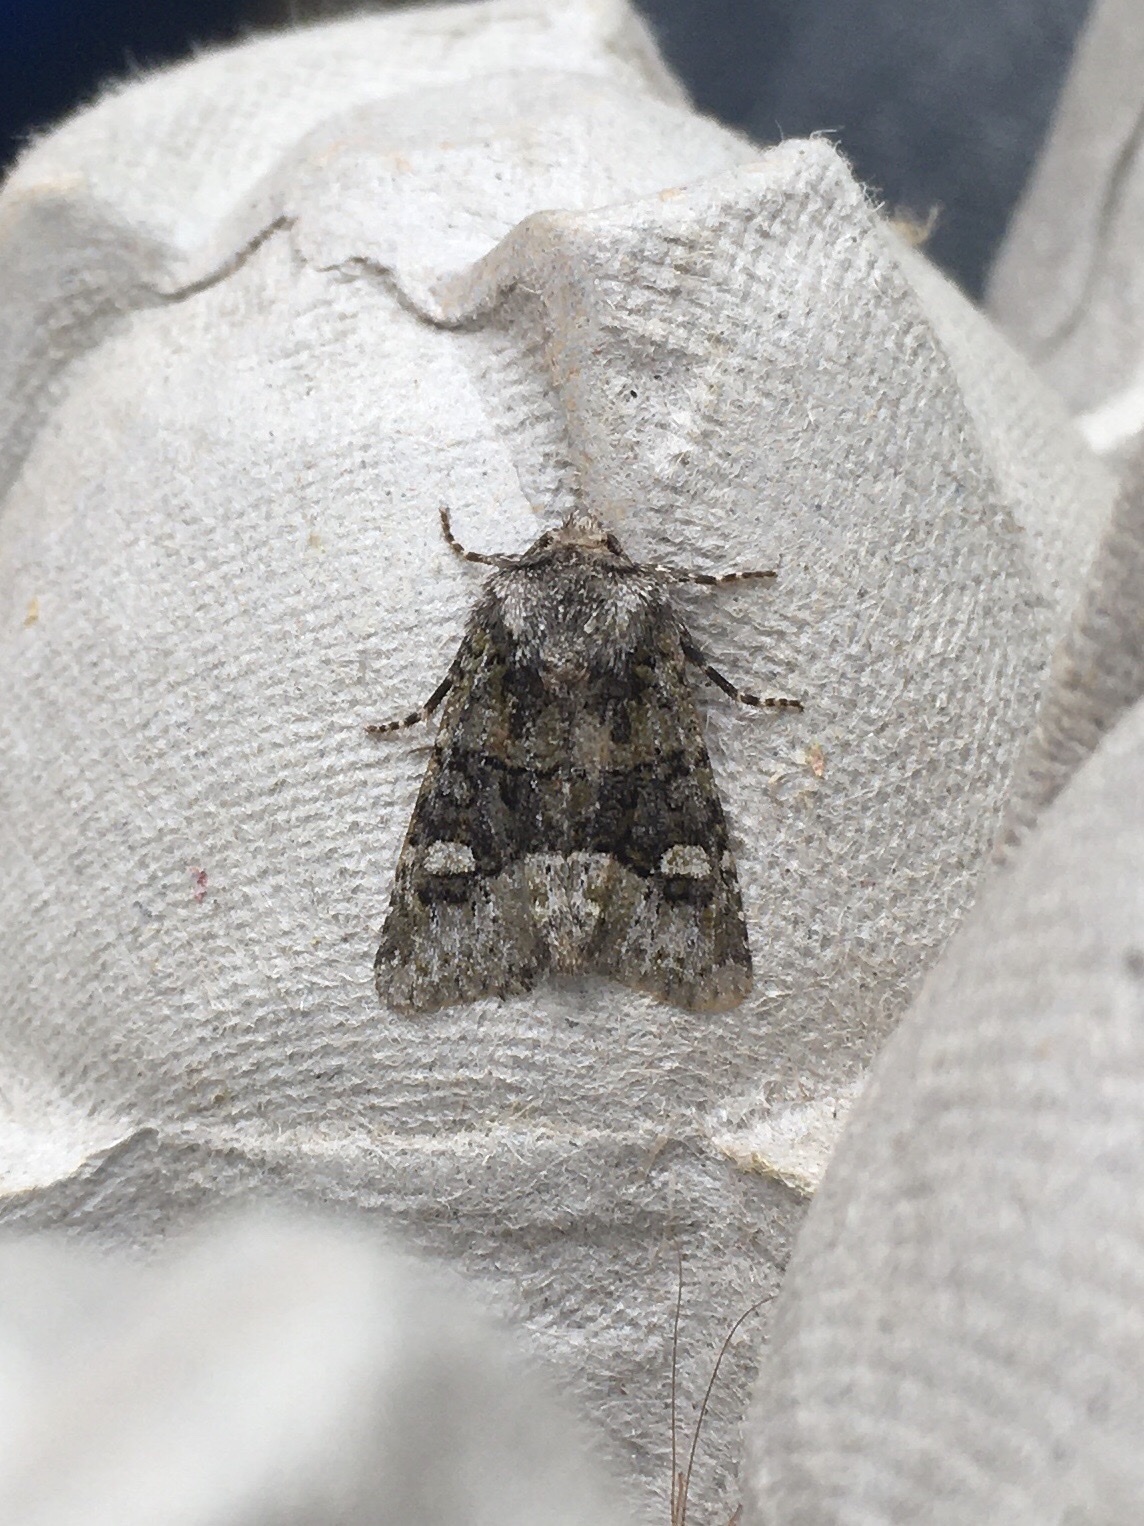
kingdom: Animalia
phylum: Arthropoda
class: Insecta
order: Lepidoptera
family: Noctuidae
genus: Lacinipolia
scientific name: Lacinipolia olivacea
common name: Olive arches moth
